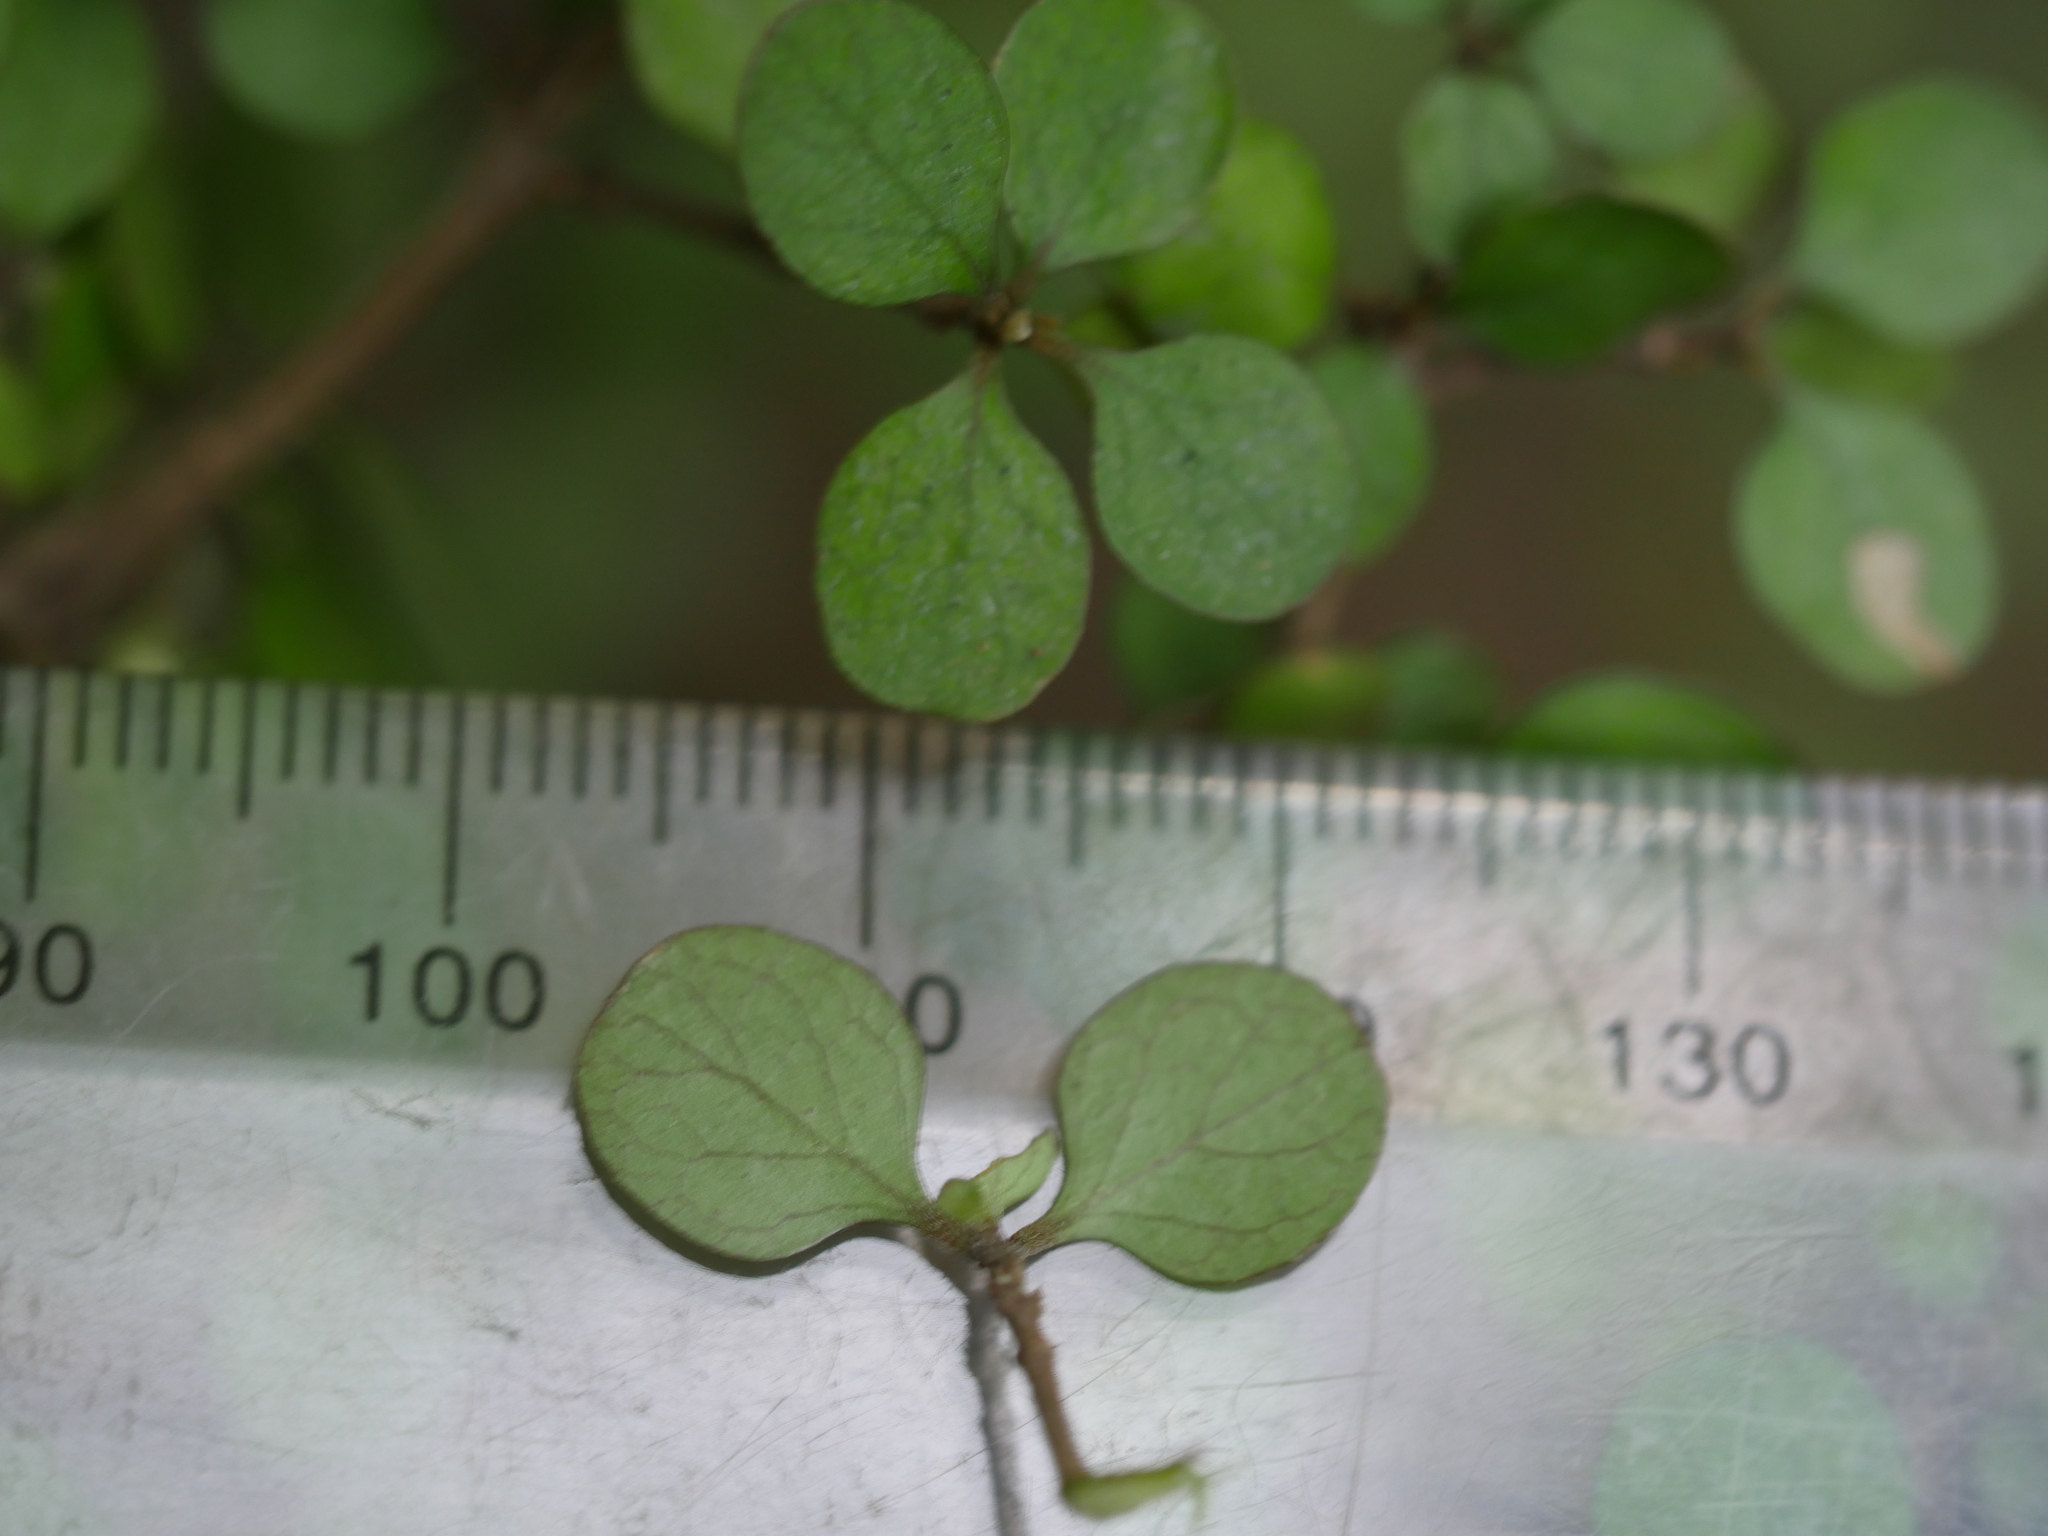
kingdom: Plantae
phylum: Tracheophyta
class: Magnoliopsida
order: Gentianales
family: Rubiaceae
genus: Coprosma
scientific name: Coprosma tenuicaulis
